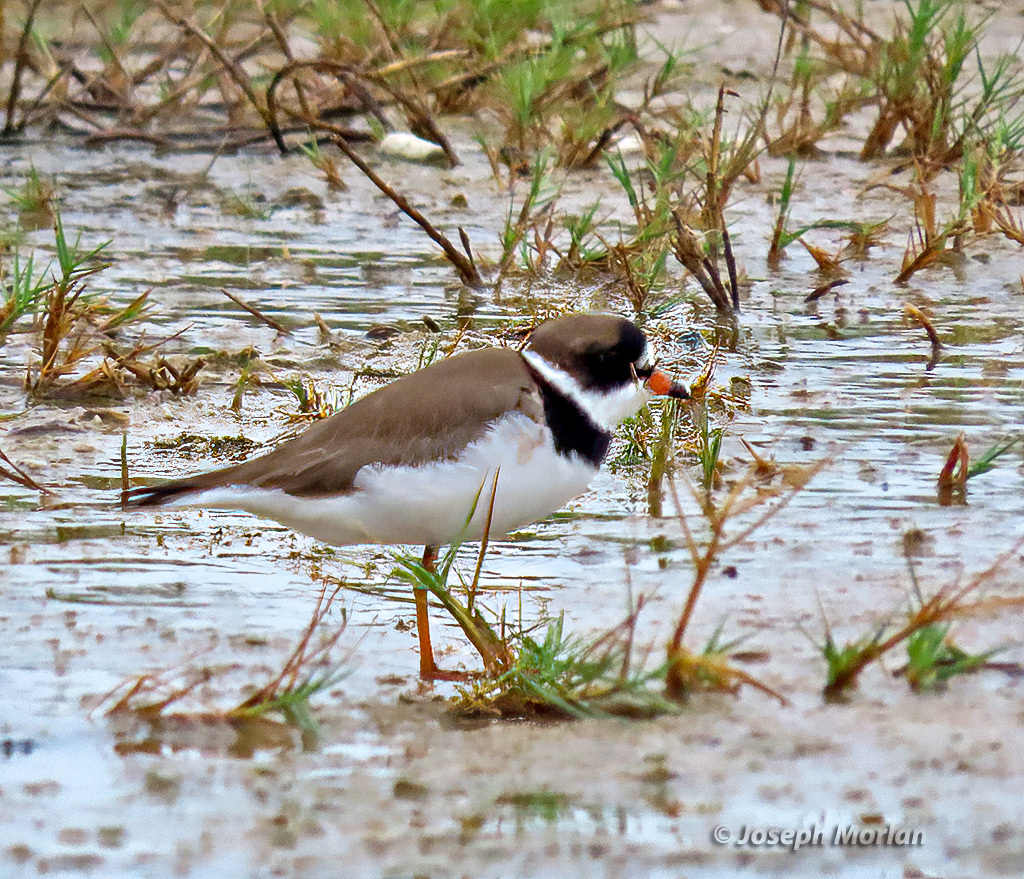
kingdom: Animalia
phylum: Chordata
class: Aves
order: Charadriiformes
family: Charadriidae
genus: Charadrius
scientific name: Charadrius semipalmatus
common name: Semipalmated plover
